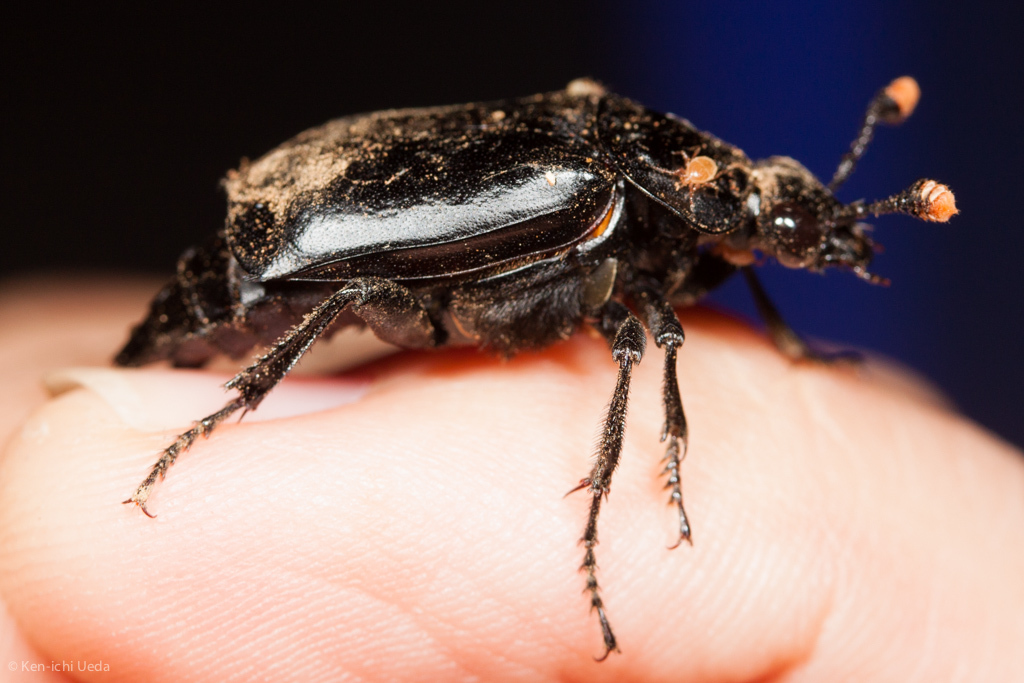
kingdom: Animalia
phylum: Arthropoda
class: Insecta
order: Coleoptera
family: Staphylinidae
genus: Nicrophorus
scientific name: Nicrophorus nigrita
